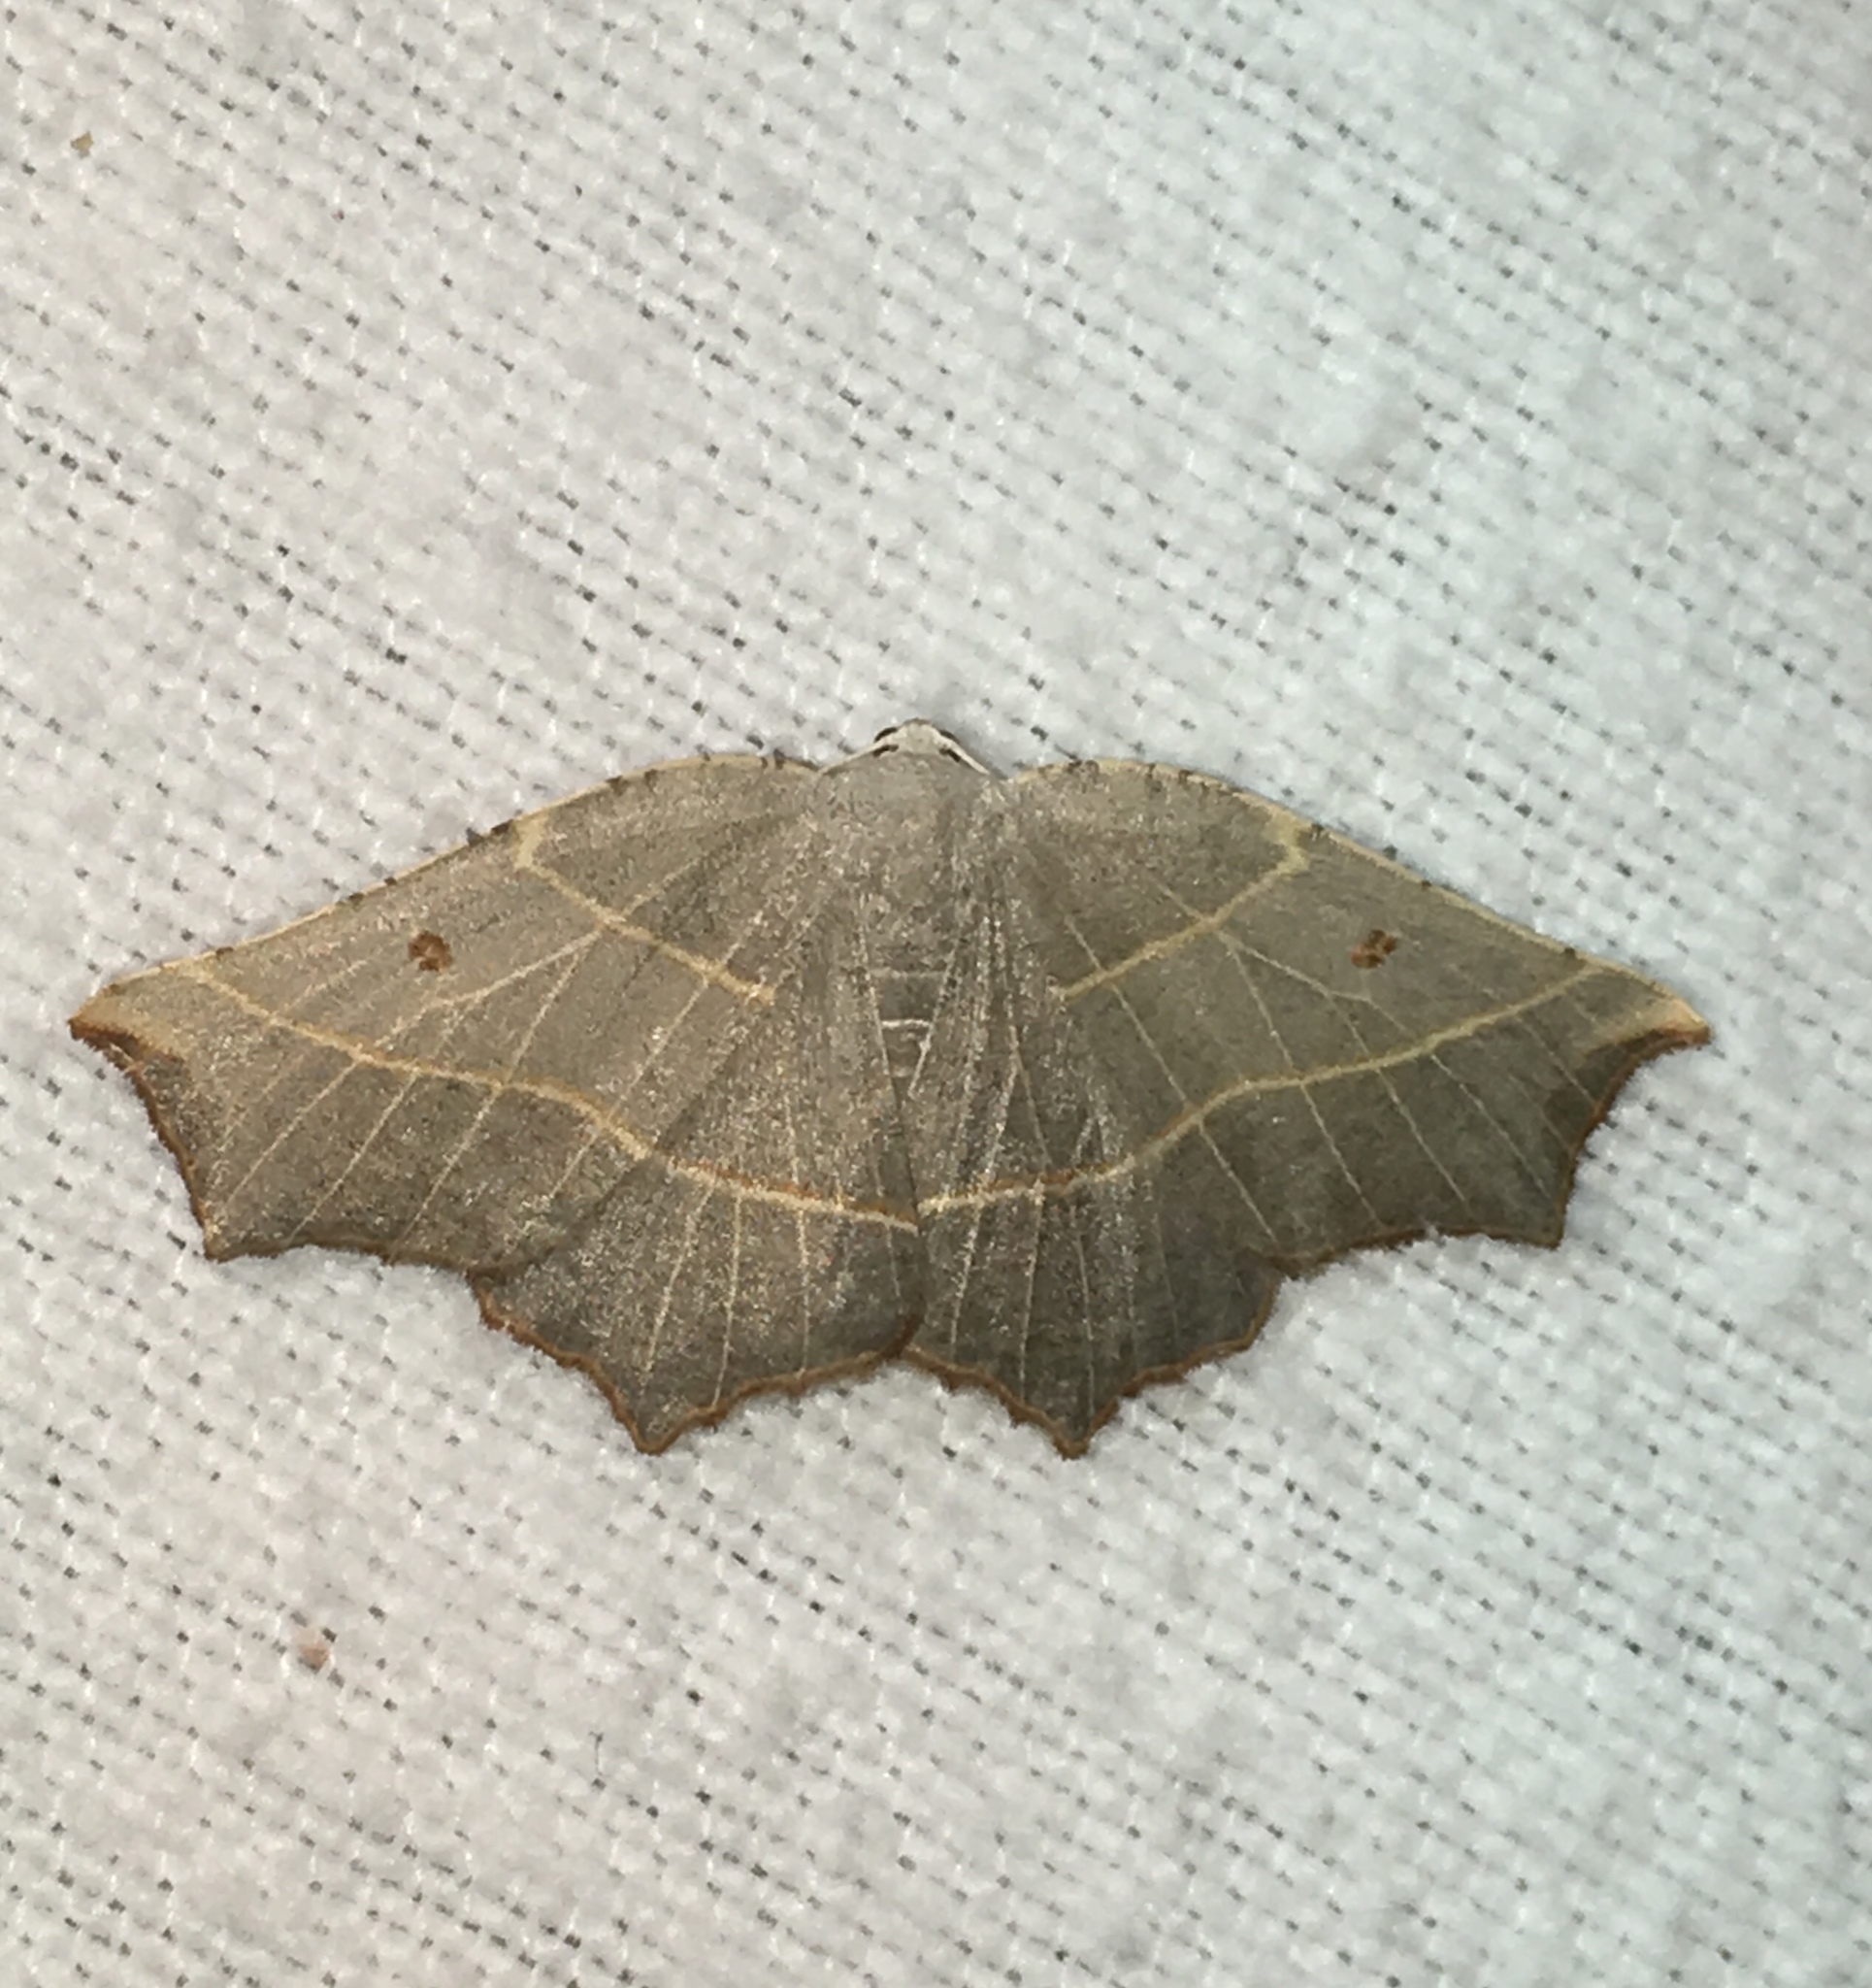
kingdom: Animalia
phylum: Arthropoda
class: Insecta
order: Lepidoptera
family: Geometridae
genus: Metanema
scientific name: Metanema inatomaria
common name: Pale metanema
